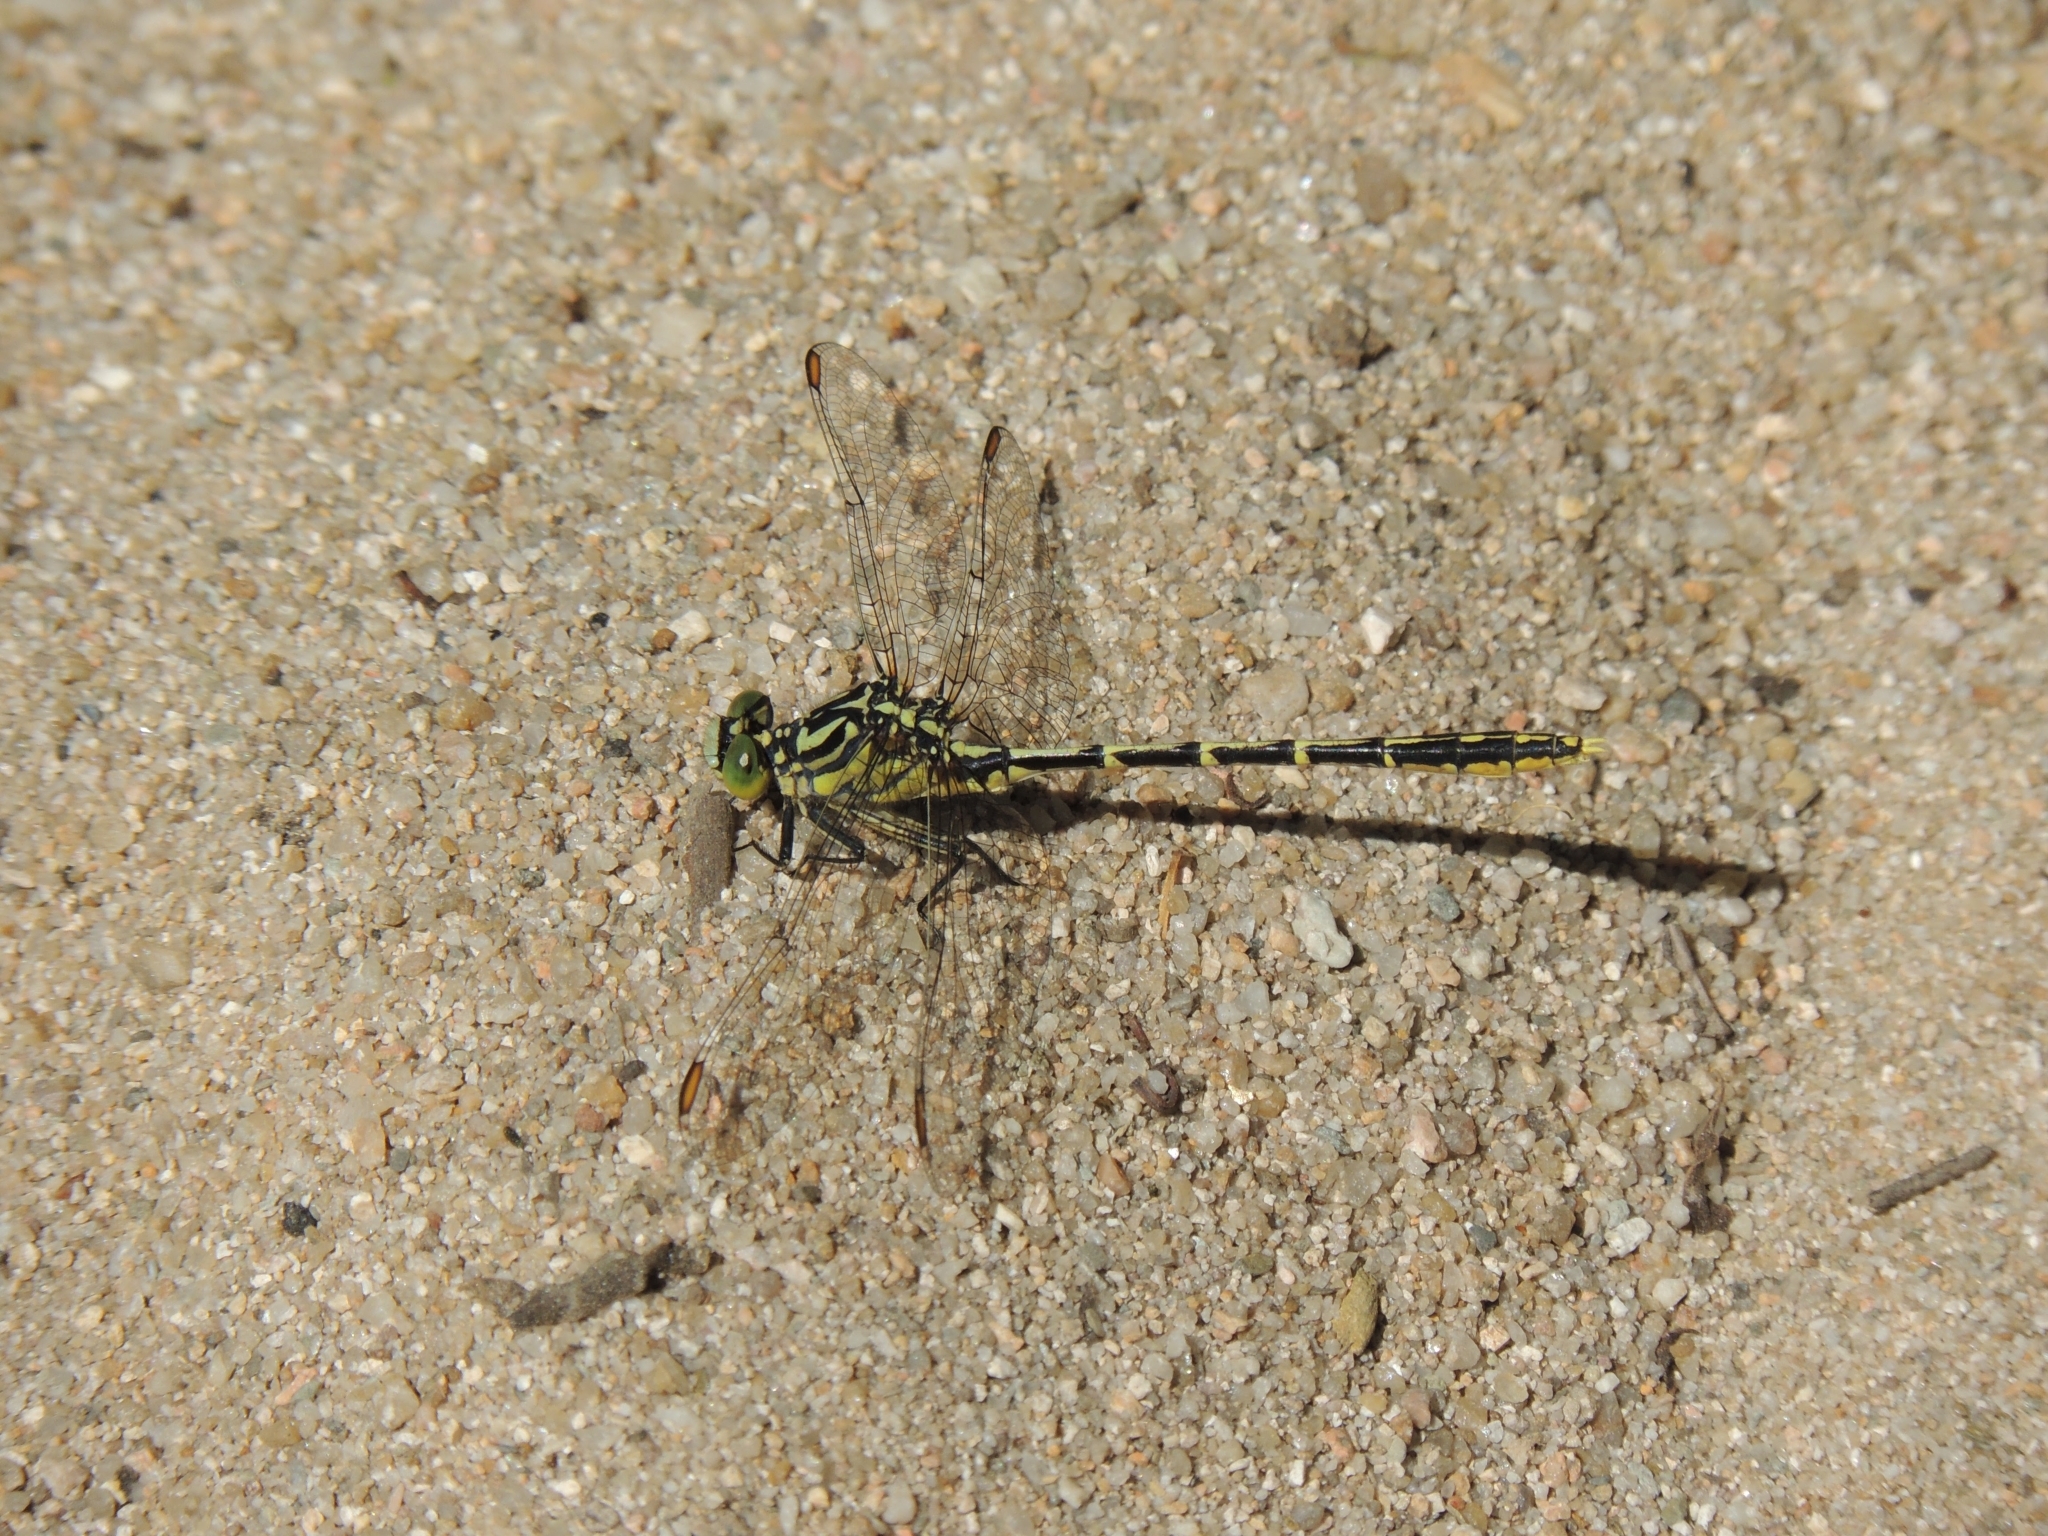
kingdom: Animalia
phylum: Arthropoda
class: Insecta
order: Odonata
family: Gomphidae
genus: Austrogomphus
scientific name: Austrogomphus guerini
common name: Yellow-striped hunter
